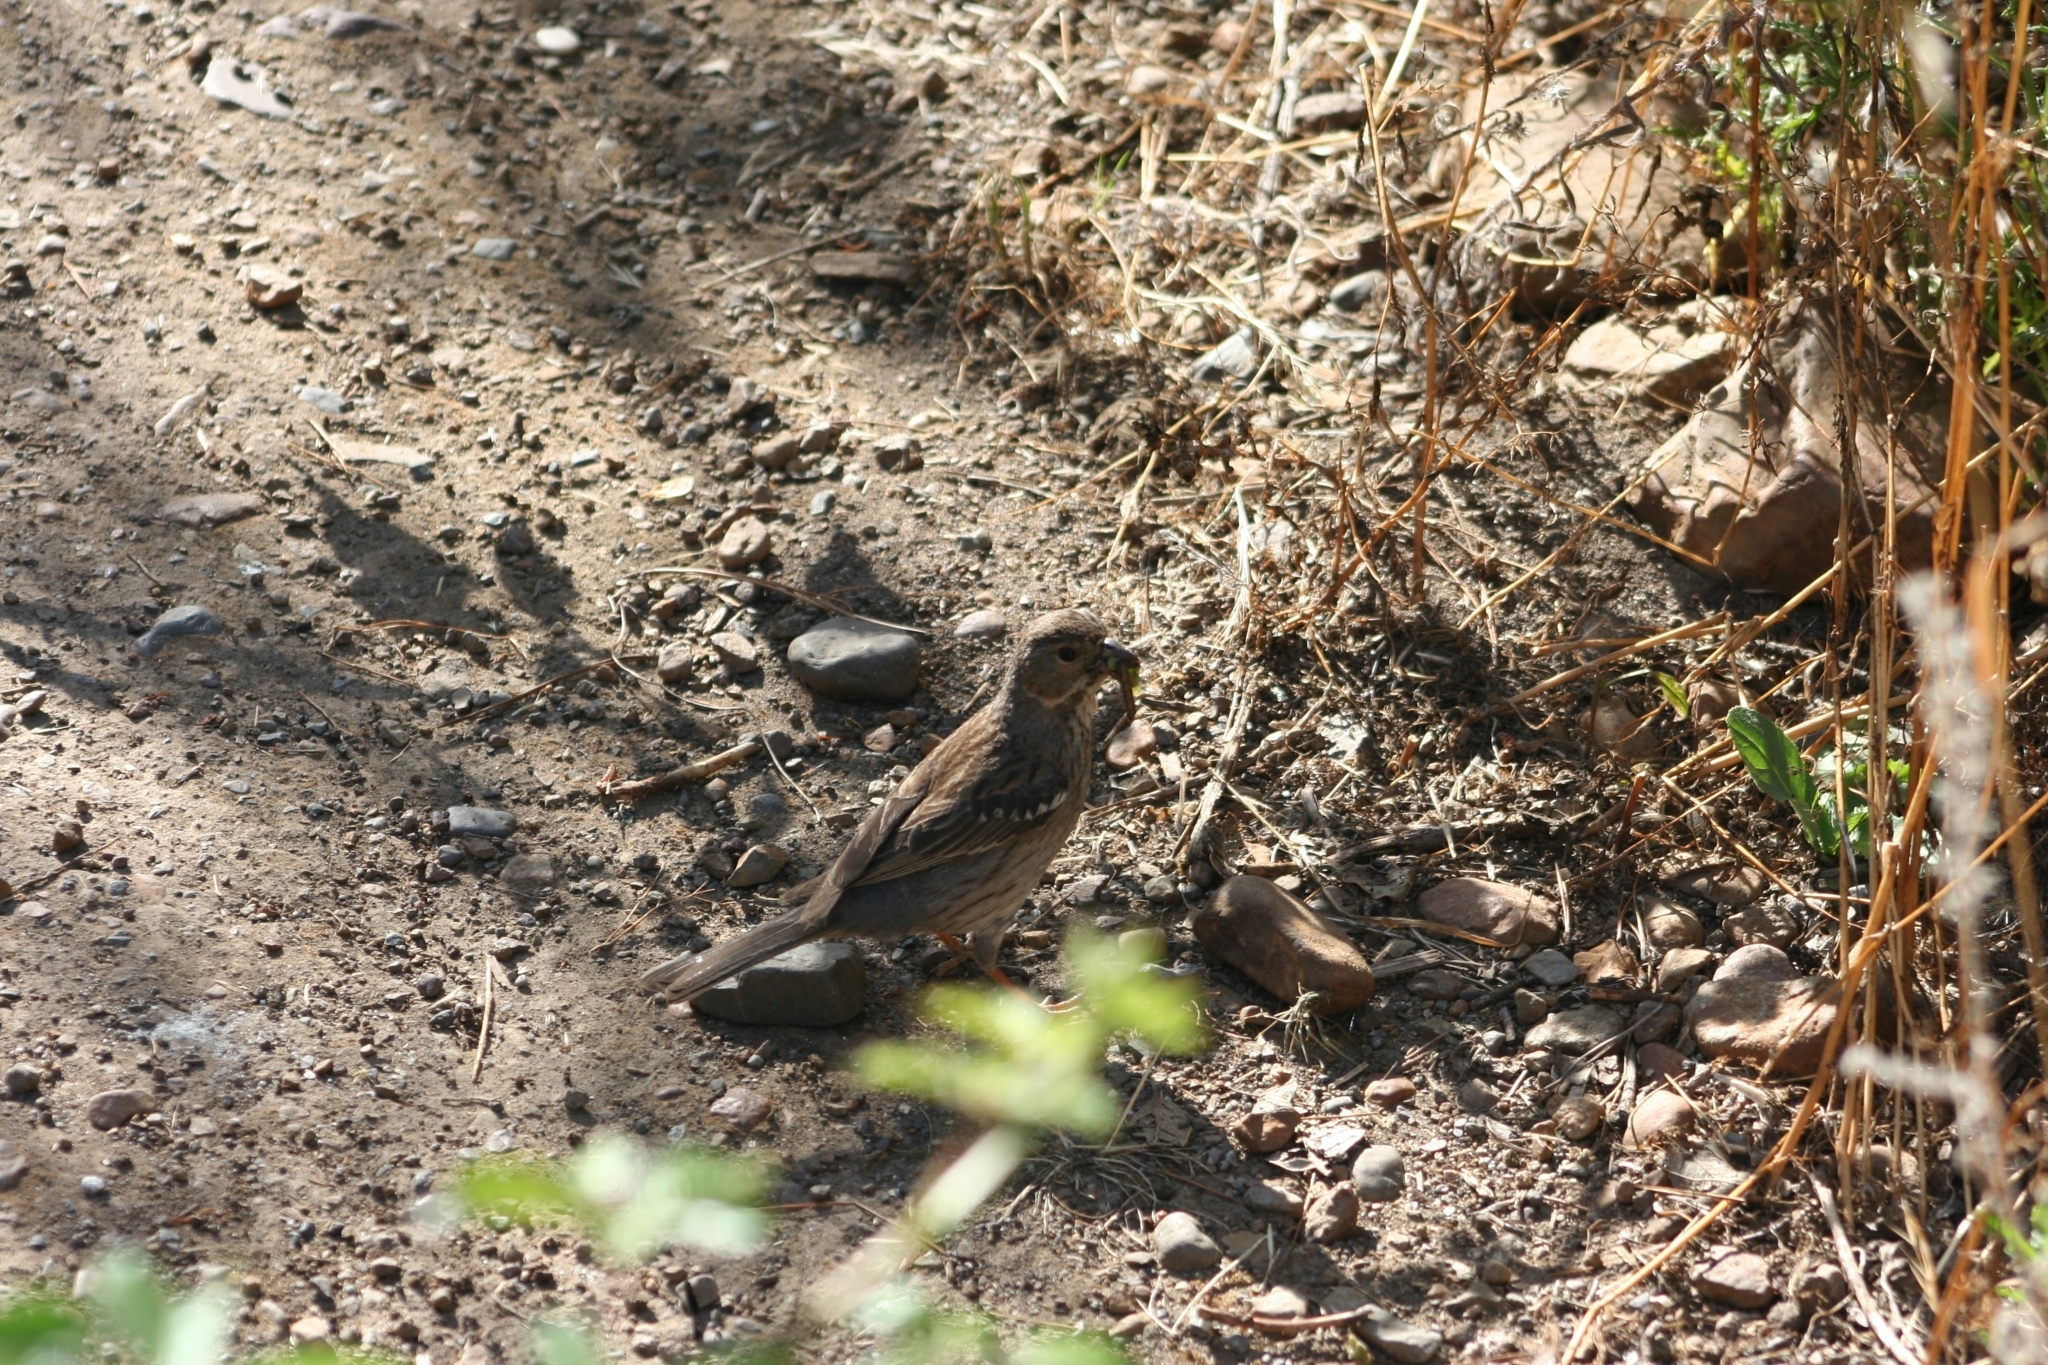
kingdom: Animalia
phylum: Chordata
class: Aves
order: Passeriformes
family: Thraupidae
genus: Rhopospina
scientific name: Rhopospina fruticeti
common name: Mourning sierra finch
